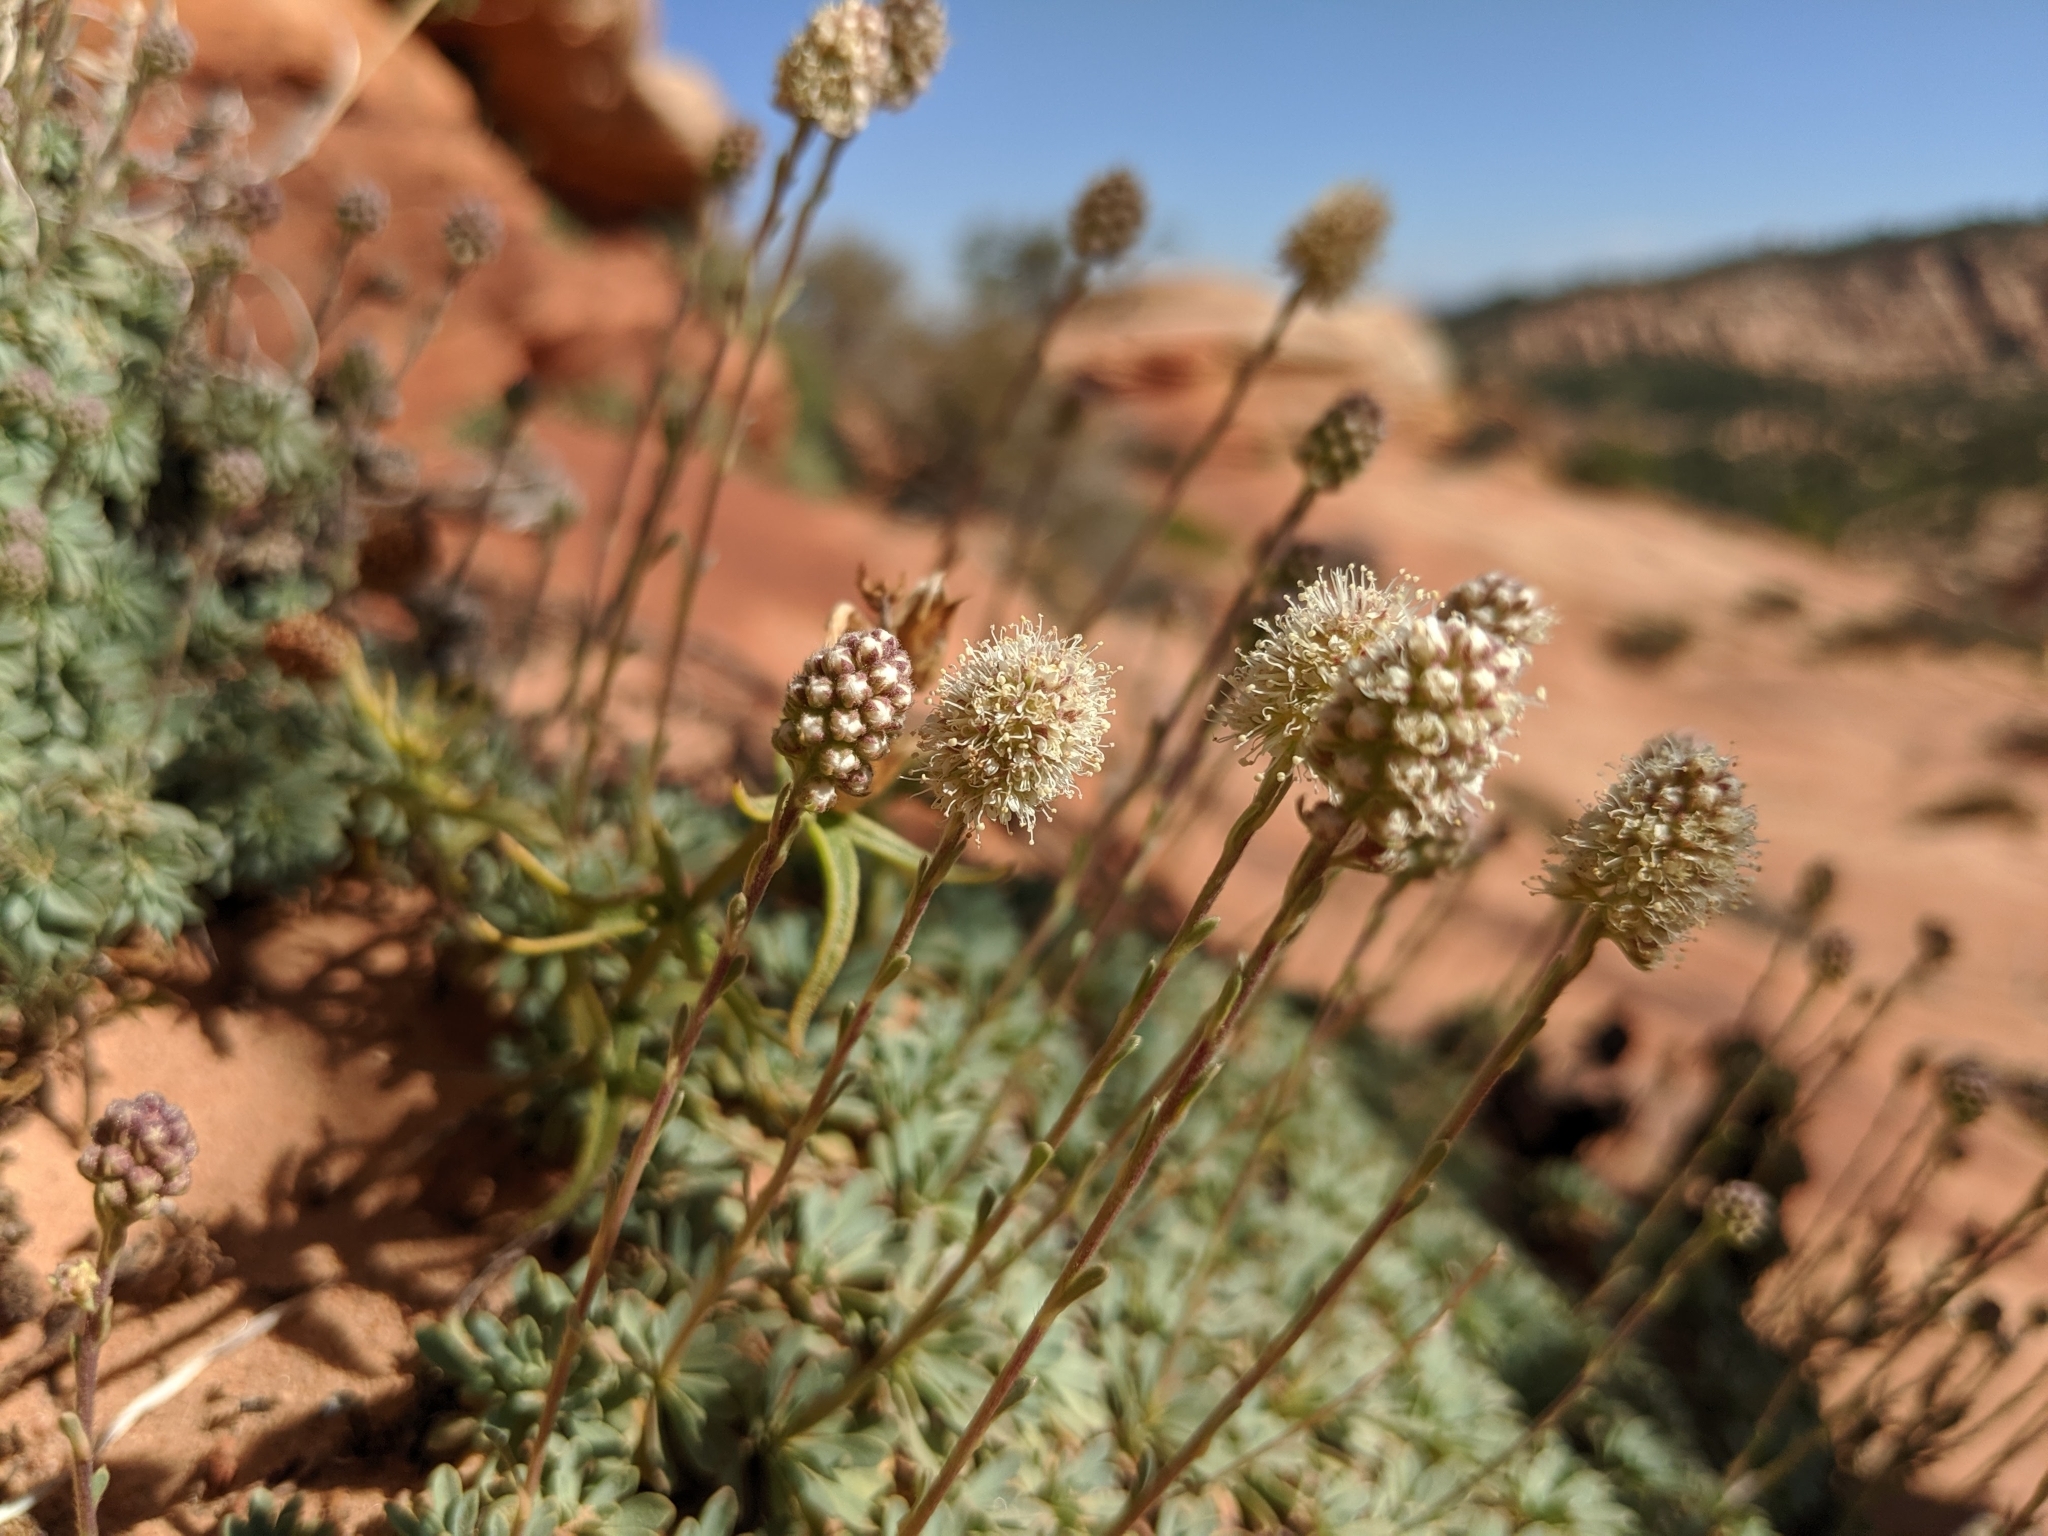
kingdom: Plantae
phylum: Tracheophyta
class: Magnoliopsida
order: Rosales
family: Rosaceae
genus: Petrophytum
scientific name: Petrophytum caespitosum
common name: Mat rockspirea
